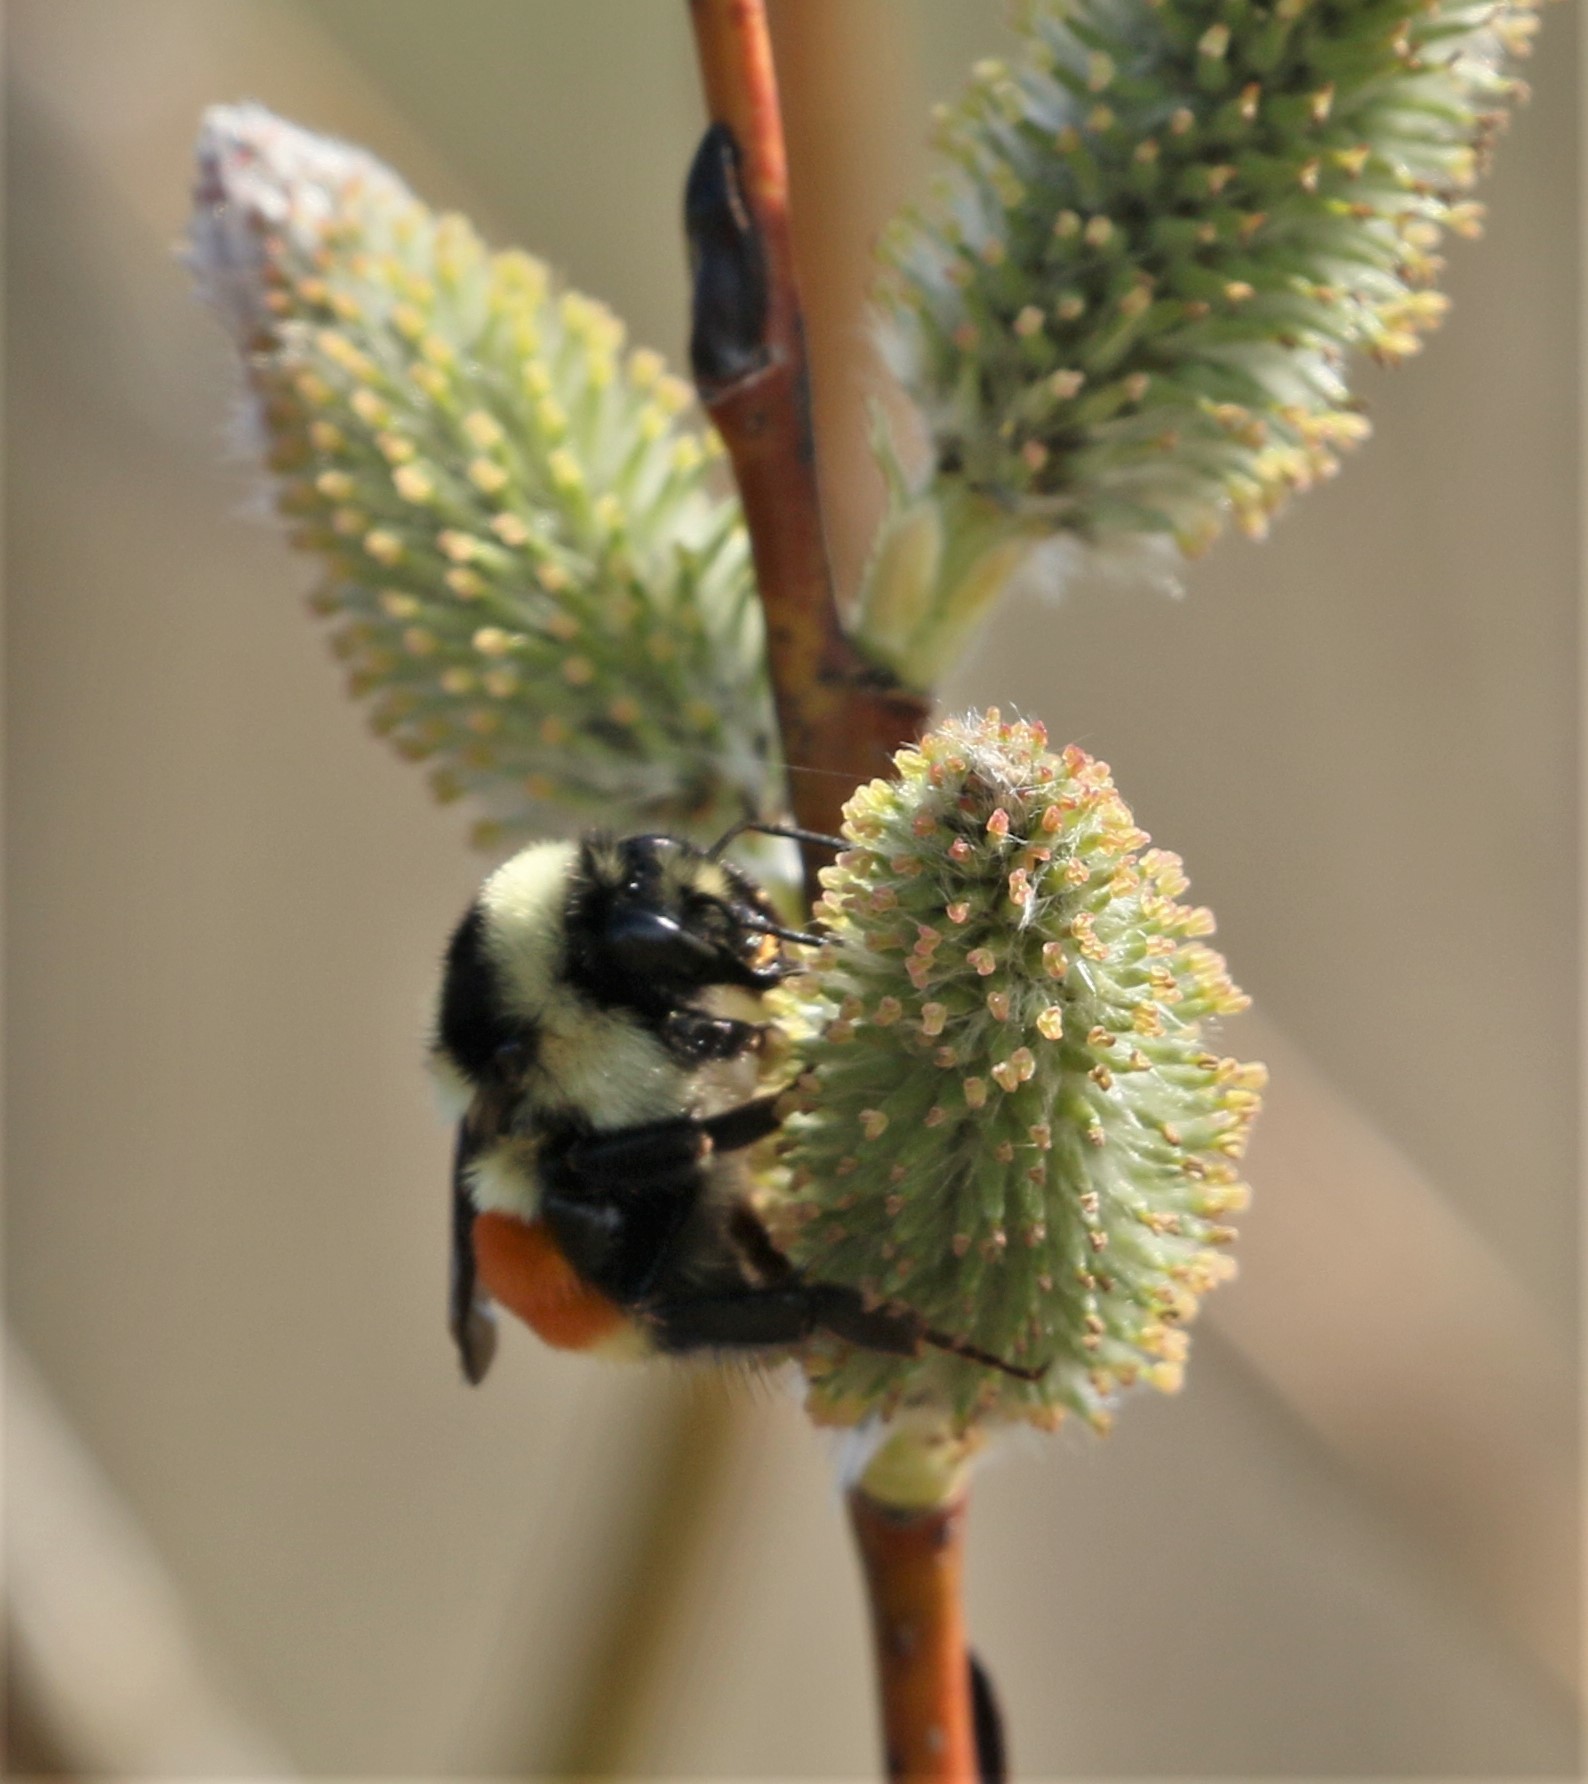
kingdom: Animalia
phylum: Arthropoda
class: Insecta
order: Hymenoptera
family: Apidae
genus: Bombus
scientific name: Bombus ternarius
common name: Tri-colored bumble bee
